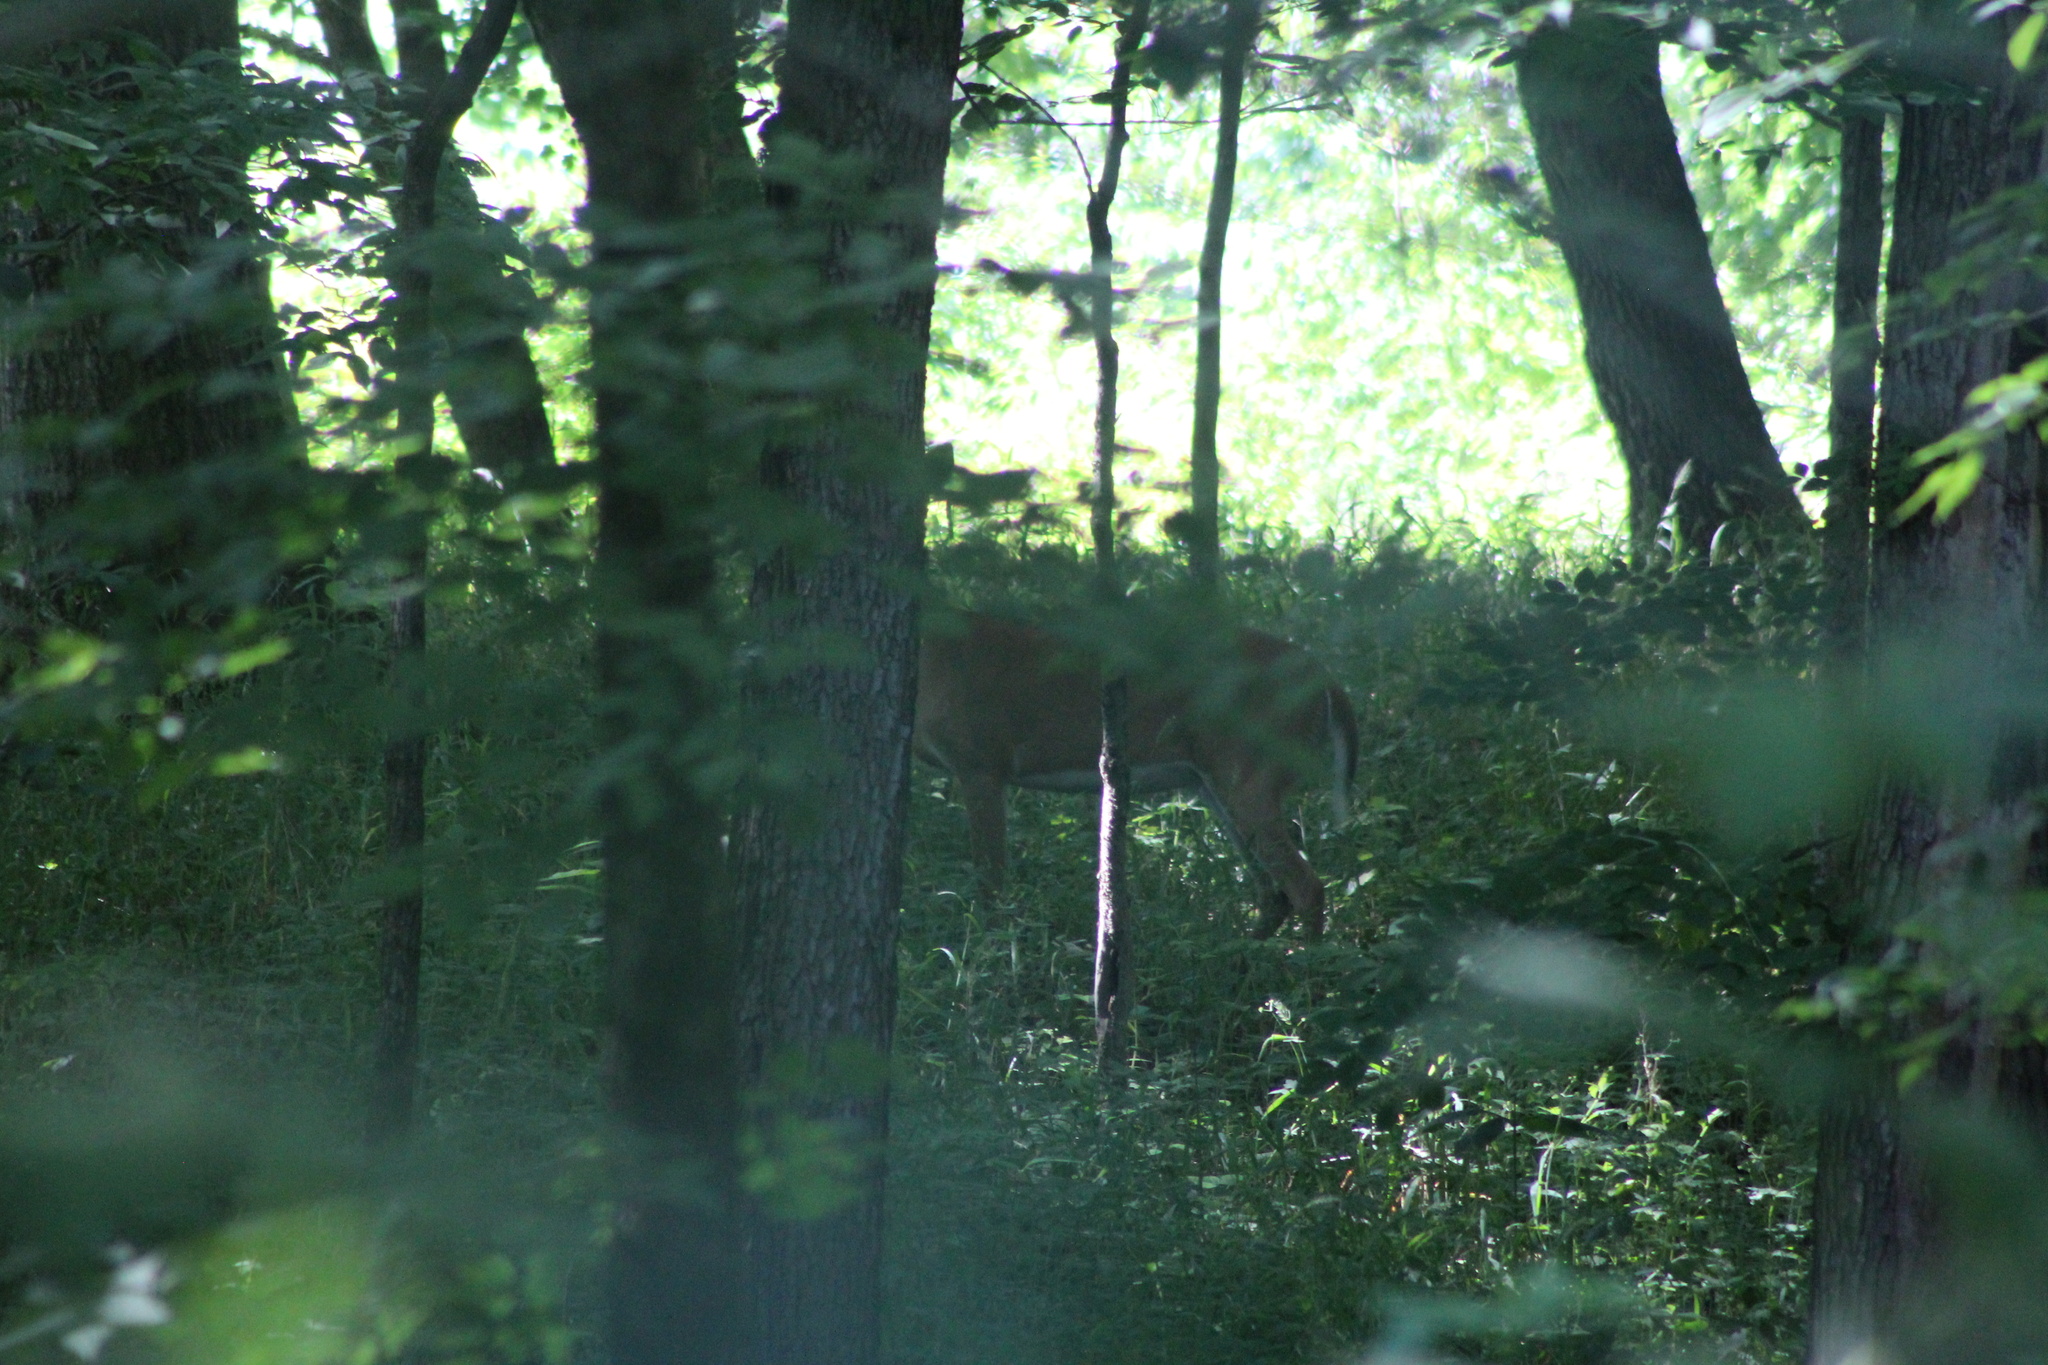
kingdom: Animalia
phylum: Chordata
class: Mammalia
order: Artiodactyla
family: Cervidae
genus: Odocoileus
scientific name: Odocoileus virginianus
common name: White-tailed deer
